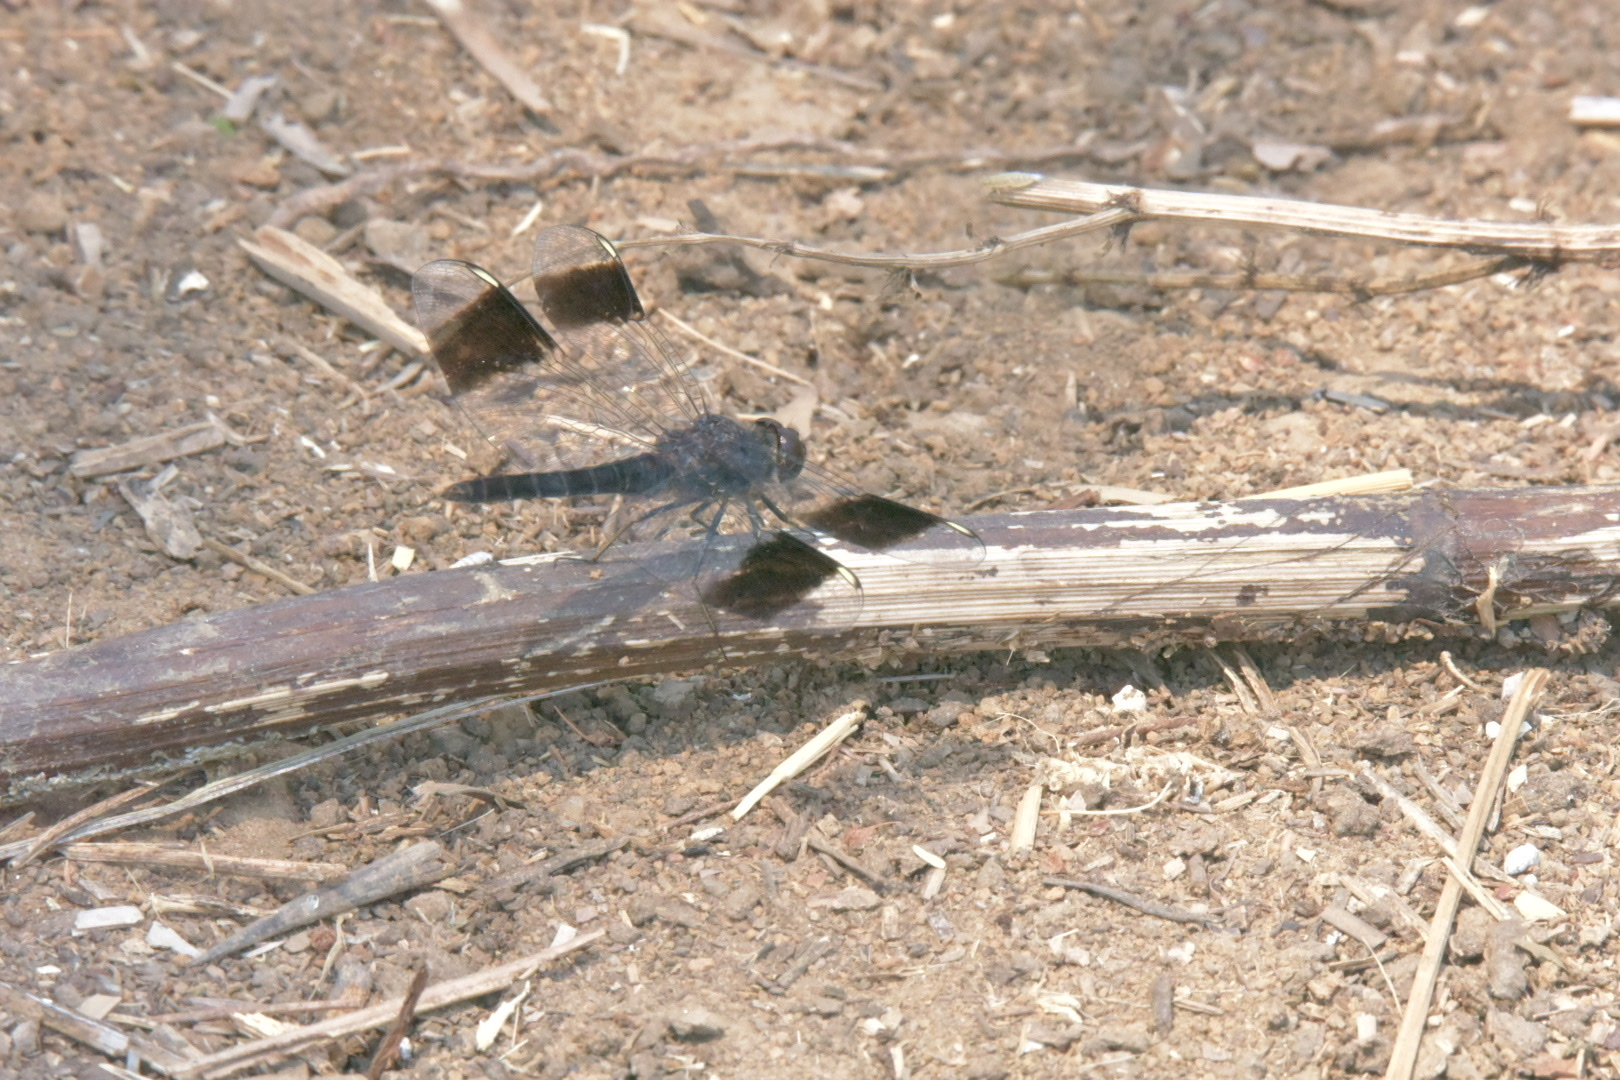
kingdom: Animalia
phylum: Arthropoda
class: Insecta
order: Odonata
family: Libellulidae
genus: Brachythemis
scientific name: Brachythemis leucosticta
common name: Banded groundling
